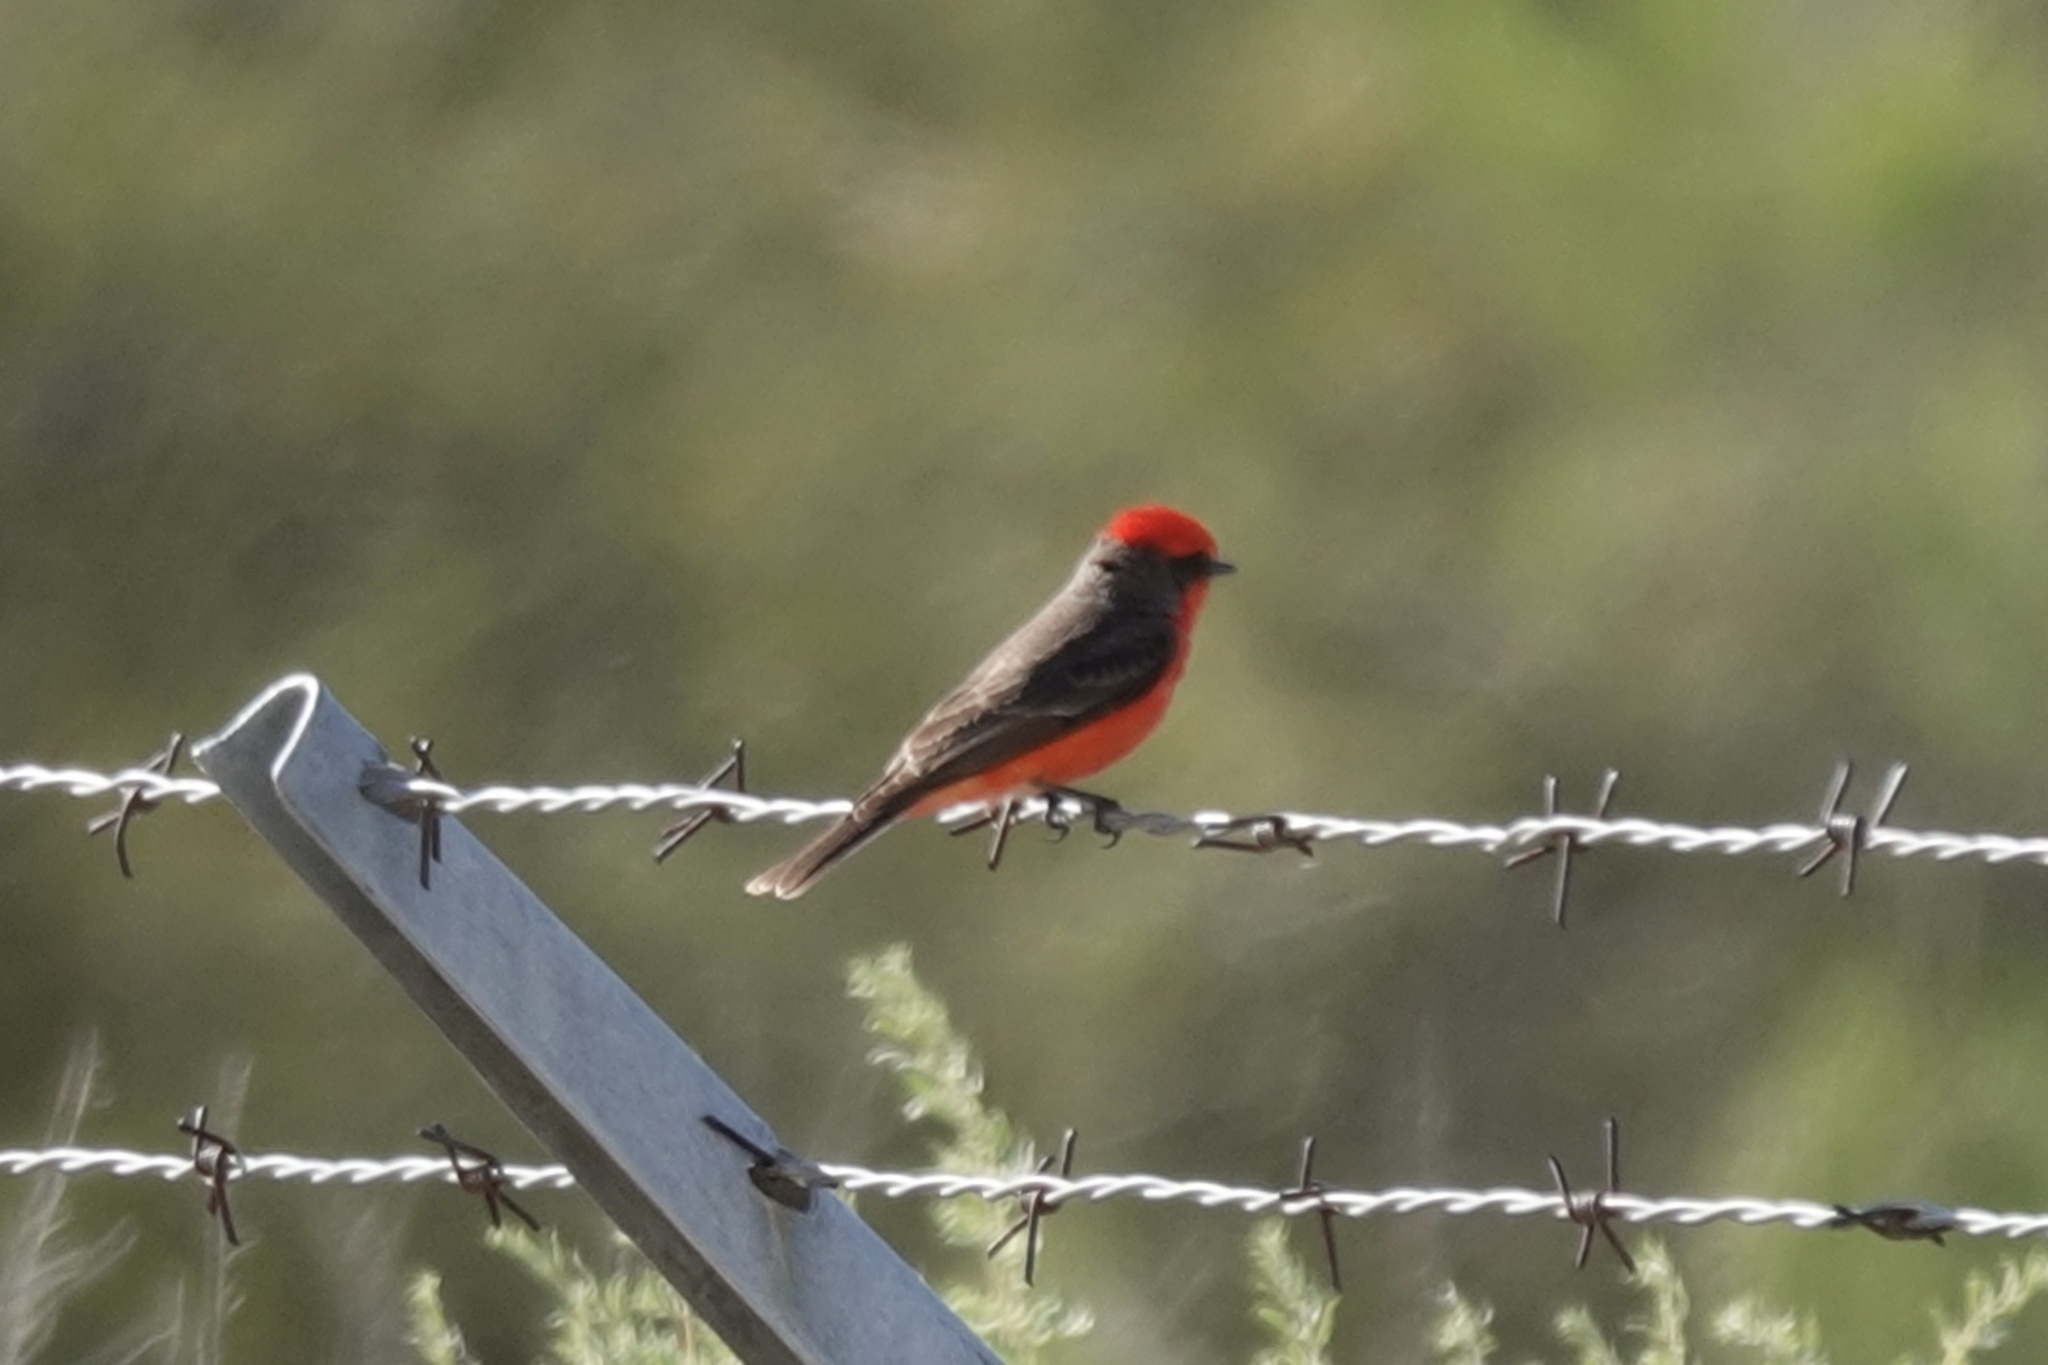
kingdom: Animalia
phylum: Chordata
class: Aves
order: Passeriformes
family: Tyrannidae
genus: Pyrocephalus
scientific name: Pyrocephalus rubinus
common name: Vermilion flycatcher
